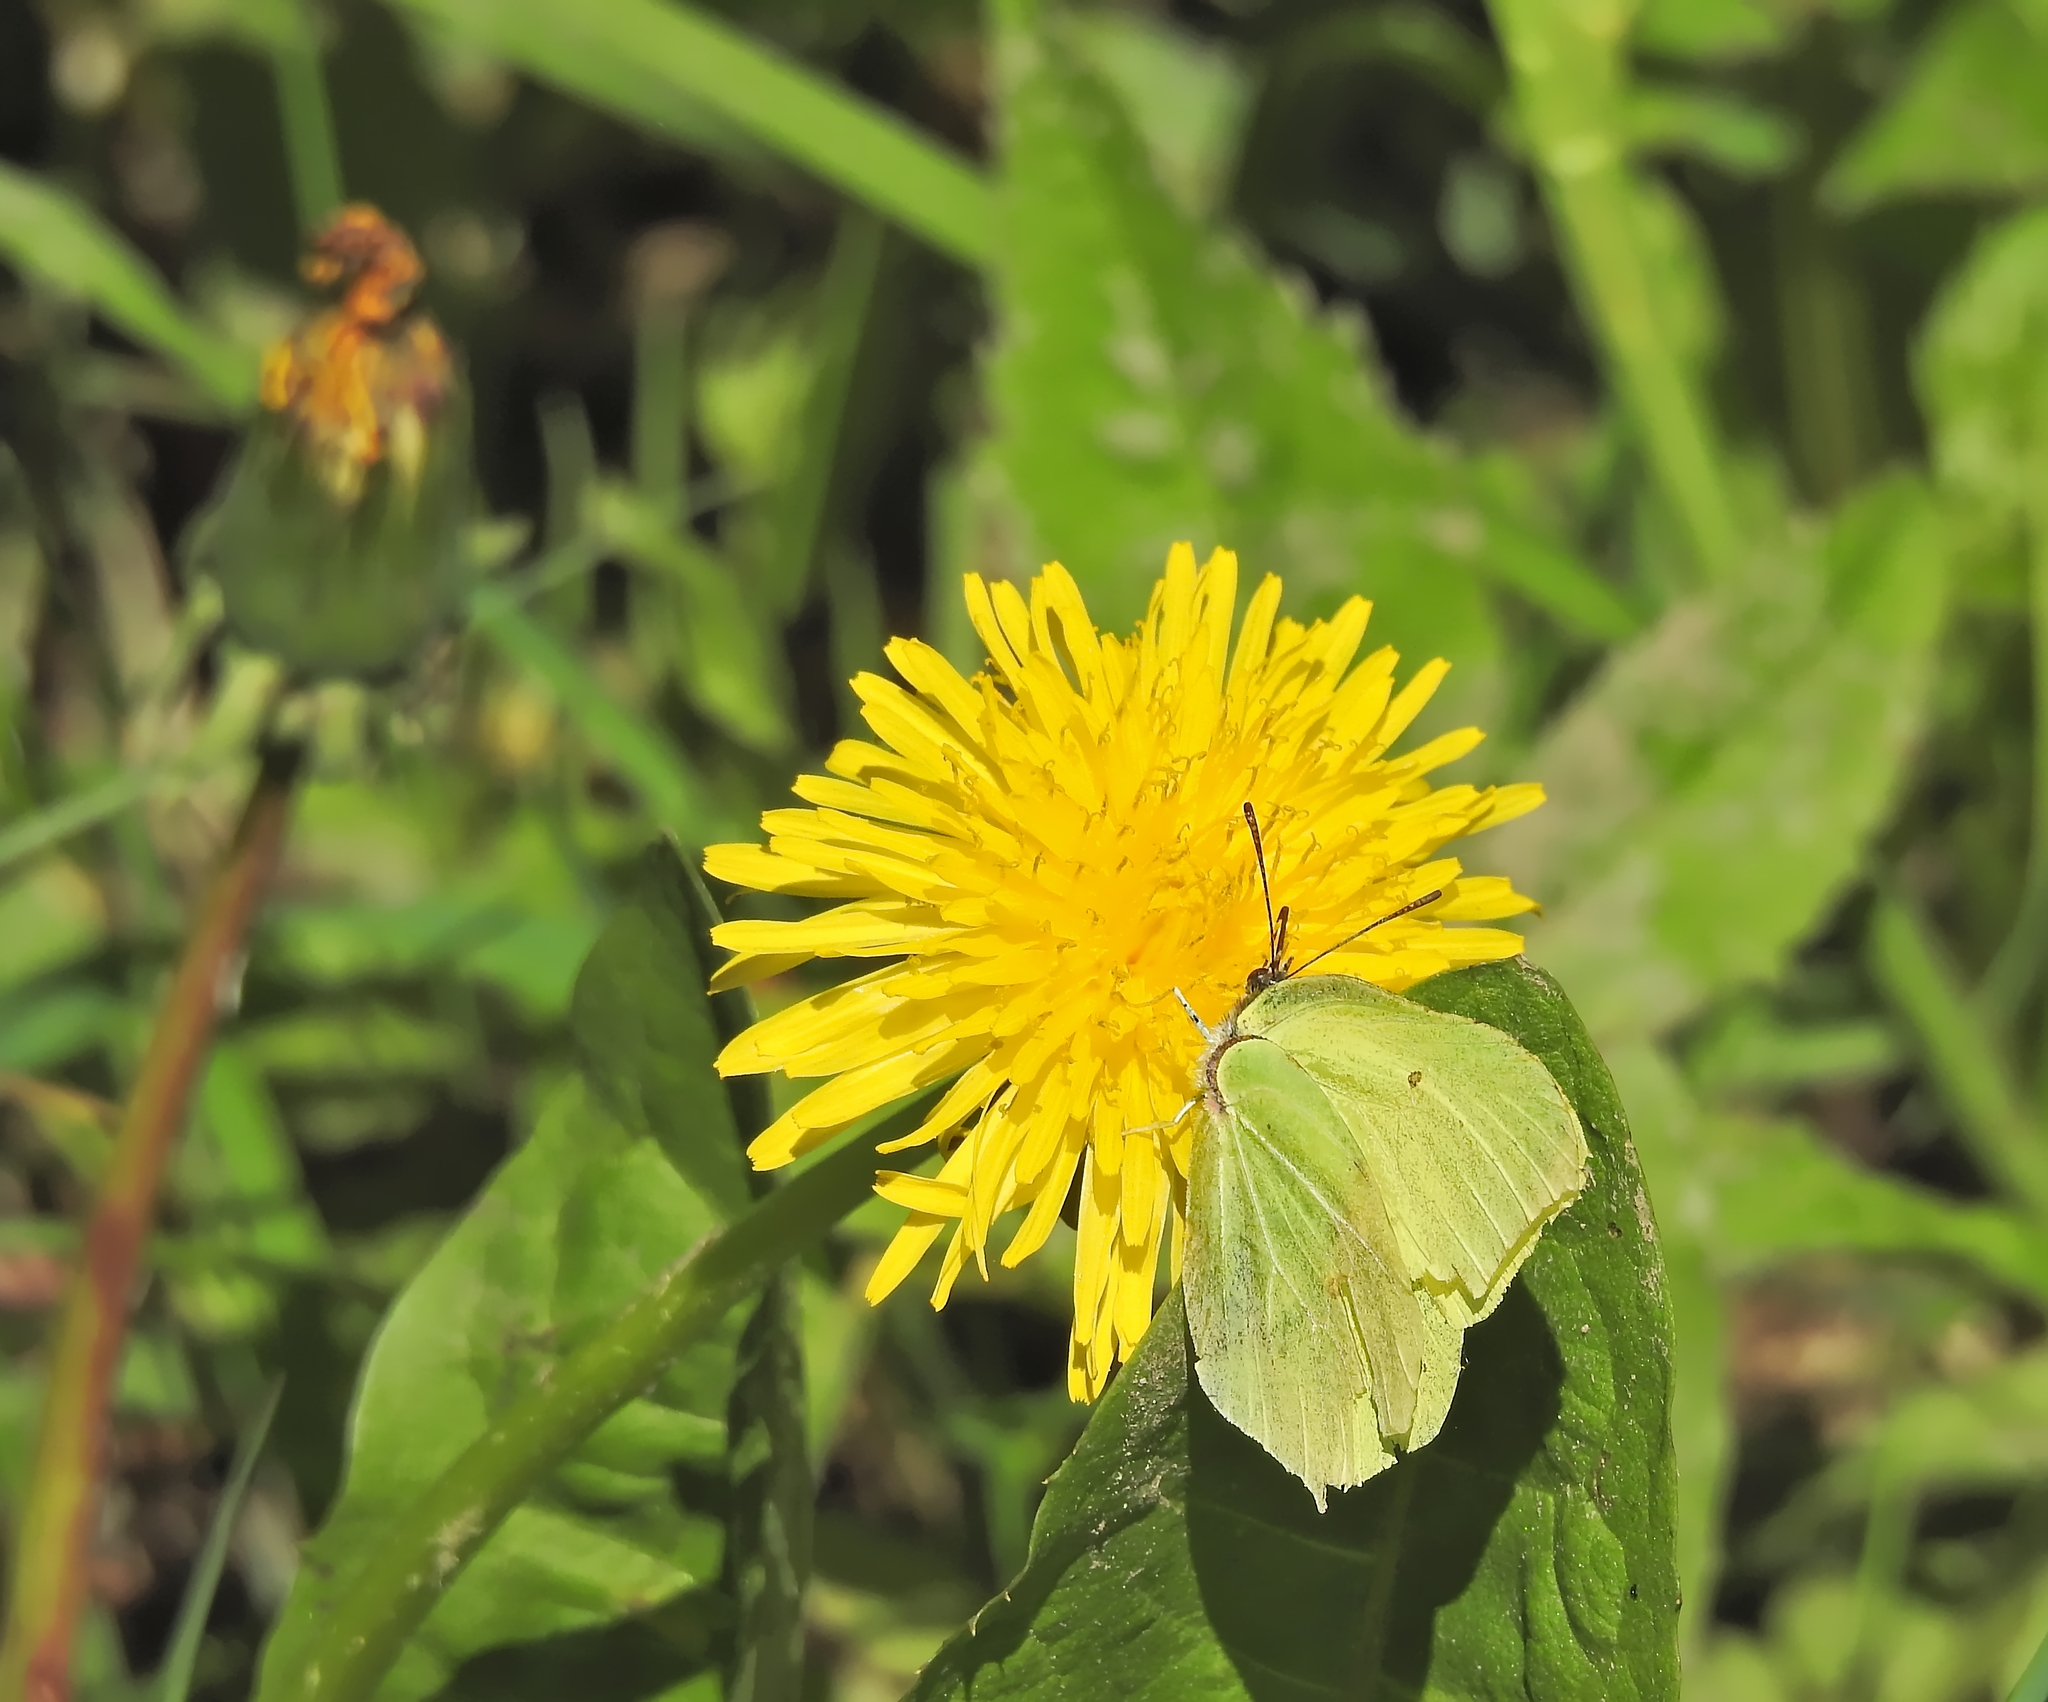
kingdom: Animalia
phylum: Arthropoda
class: Insecta
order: Lepidoptera
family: Pieridae
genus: Gonepteryx
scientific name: Gonepteryx rhamni
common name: Brimstone
